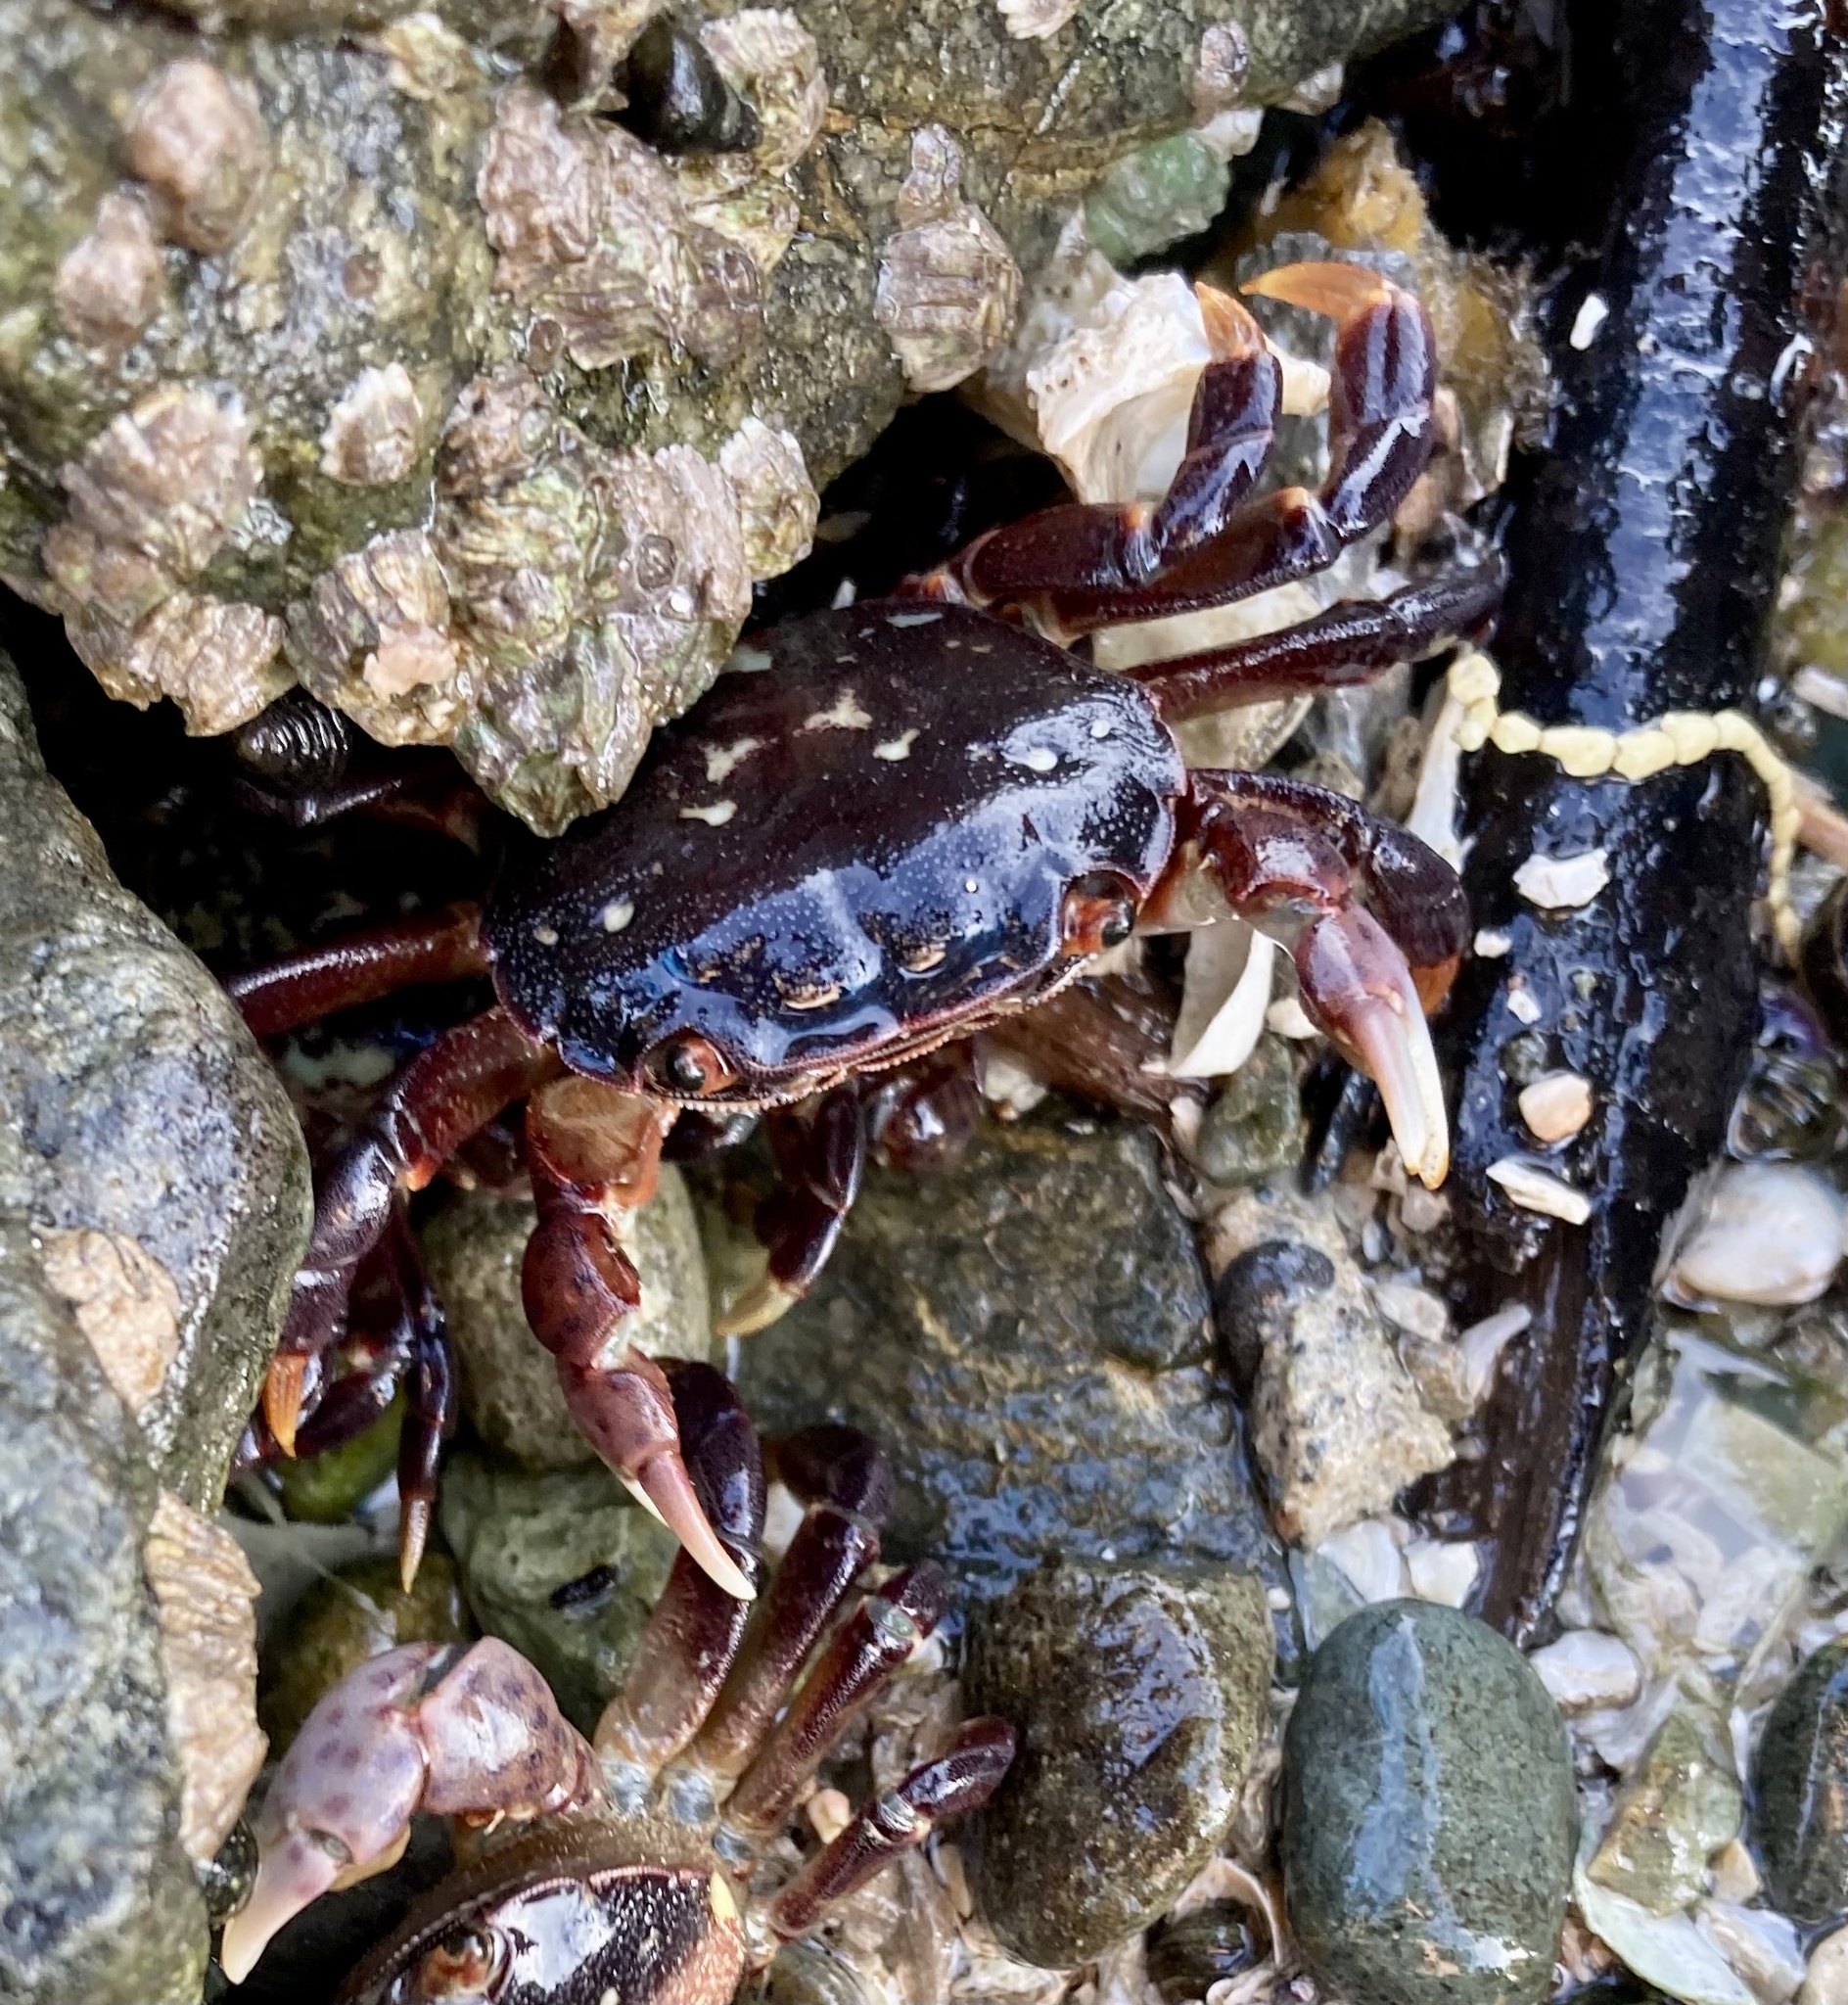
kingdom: Animalia
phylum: Arthropoda
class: Malacostraca
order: Decapoda
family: Varunidae
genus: Hemigrapsus
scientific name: Hemigrapsus nudus
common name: Purple shore crab
